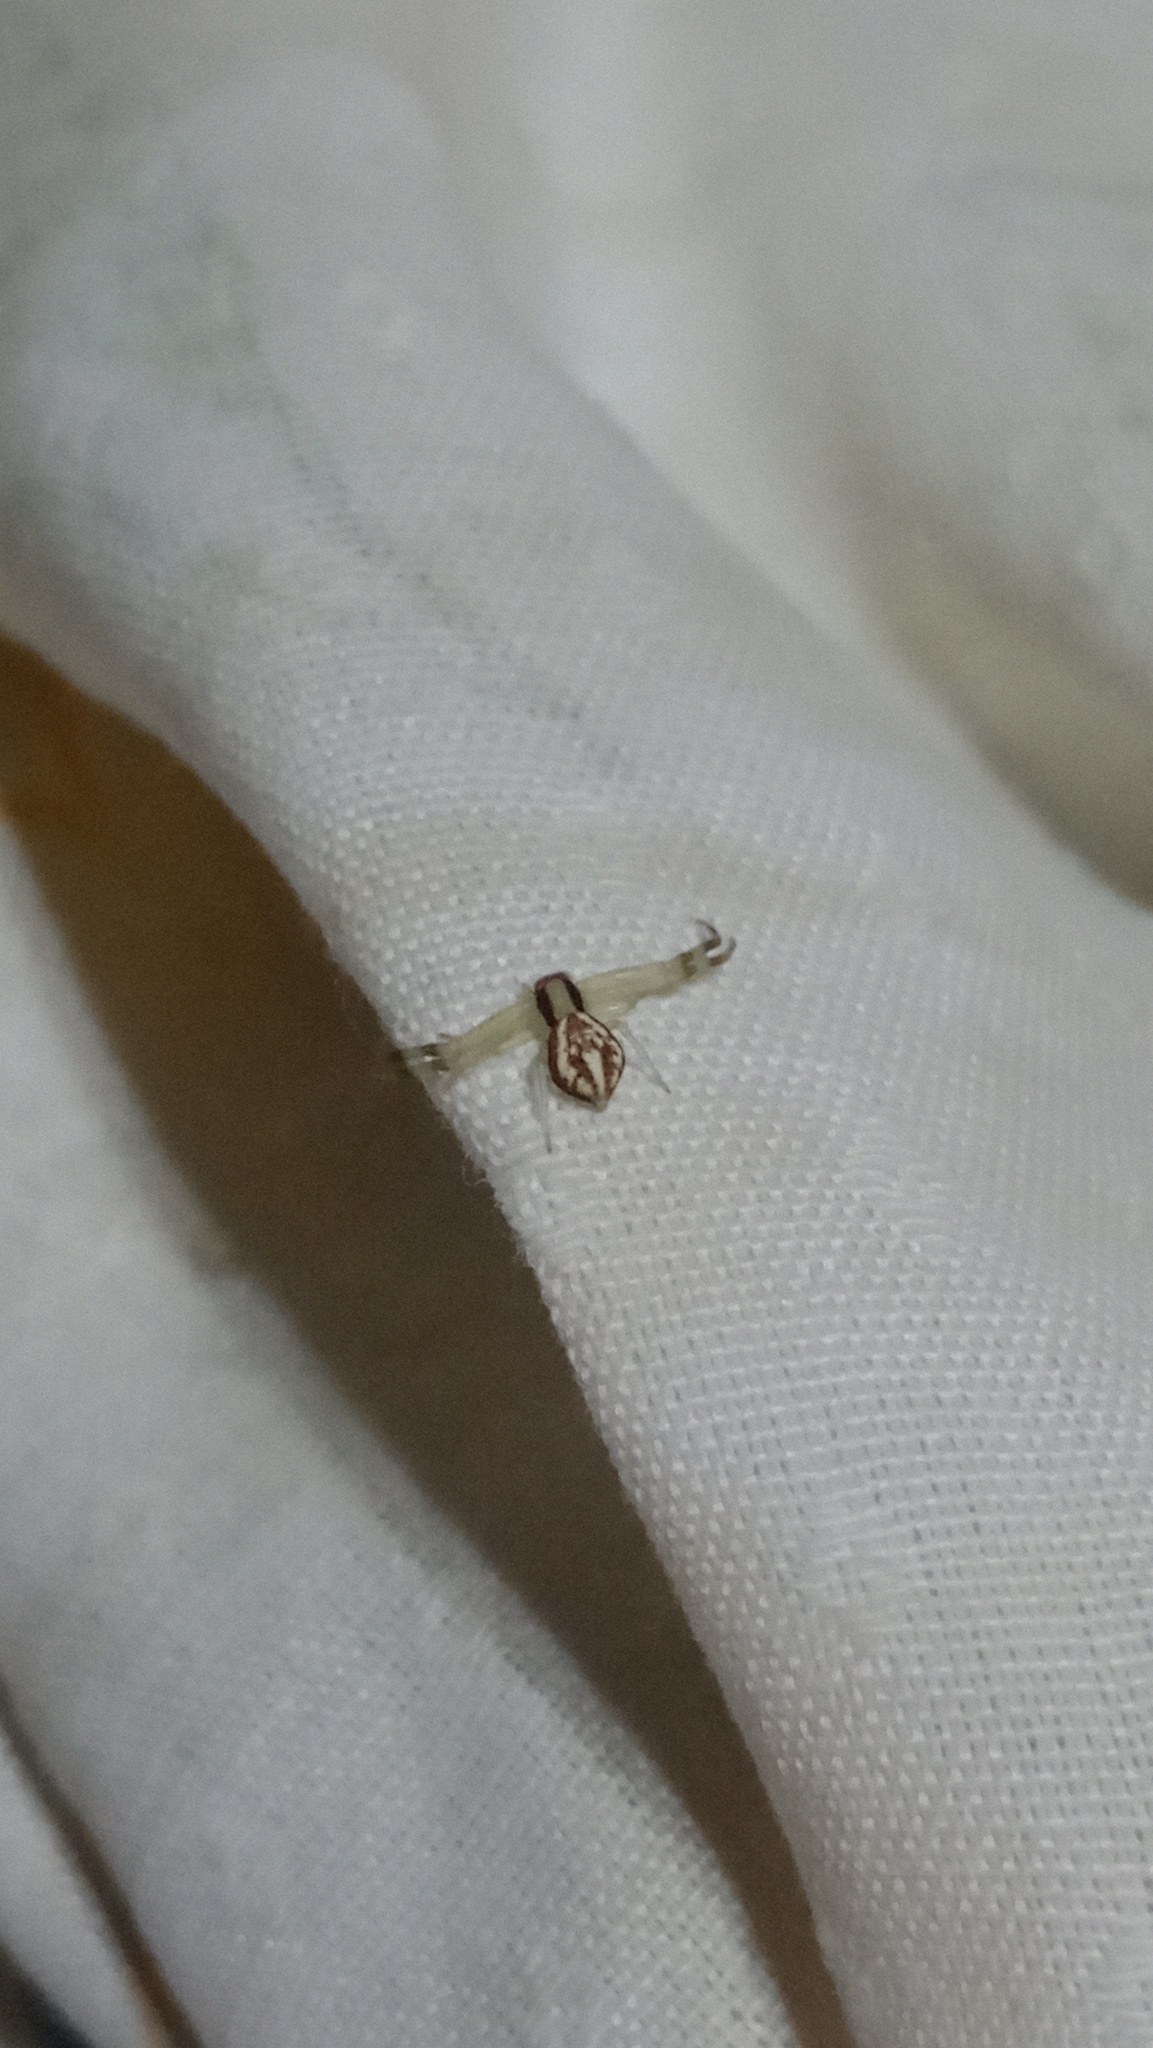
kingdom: Animalia
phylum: Arthropoda
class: Arachnida
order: Araneae
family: Thomisidae
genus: Misumenops
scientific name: Misumenops
